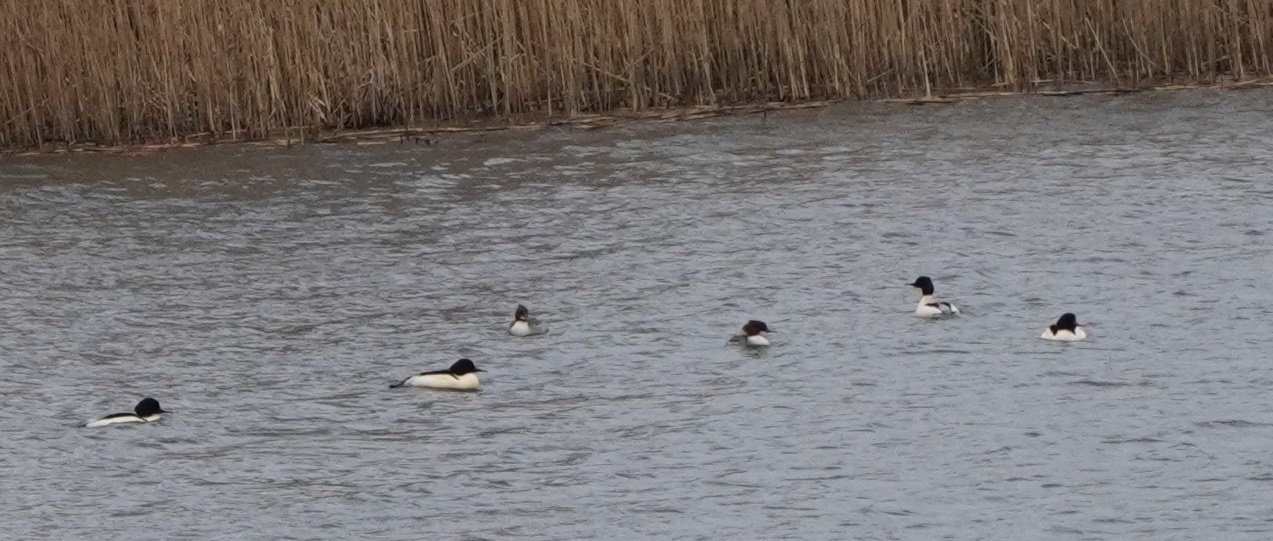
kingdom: Animalia
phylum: Chordata
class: Aves
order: Anseriformes
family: Anatidae
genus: Mergus
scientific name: Mergus merganser
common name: Common merganser
